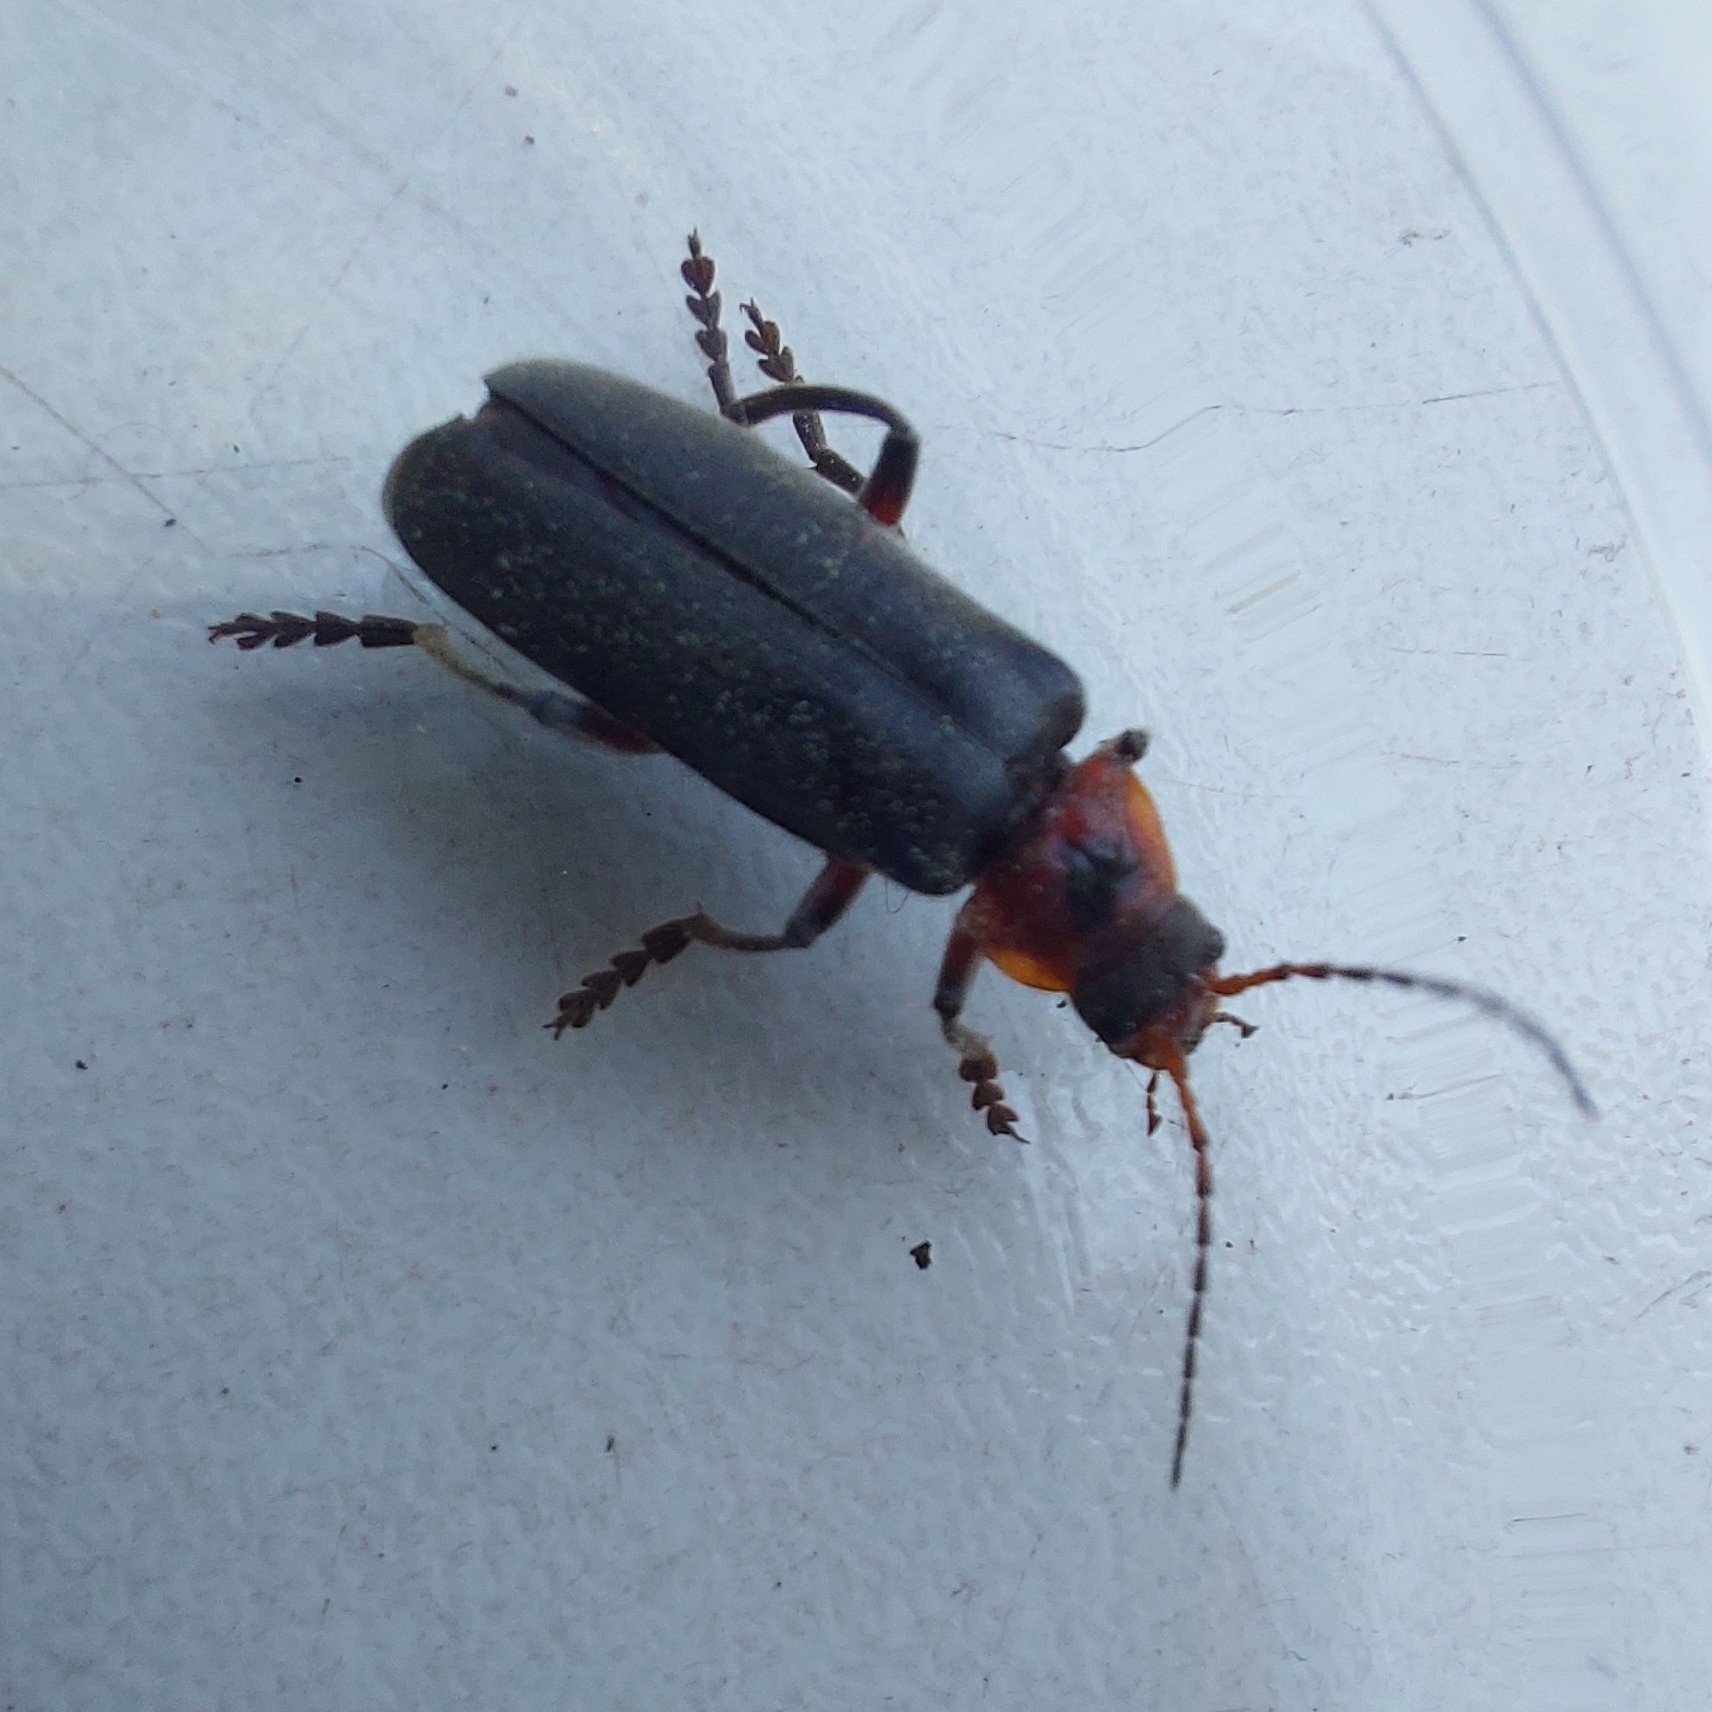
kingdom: Animalia
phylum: Arthropoda
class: Insecta
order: Coleoptera
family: Cantharidae
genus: Cantharis
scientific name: Cantharis rustica
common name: Soldier beetle
